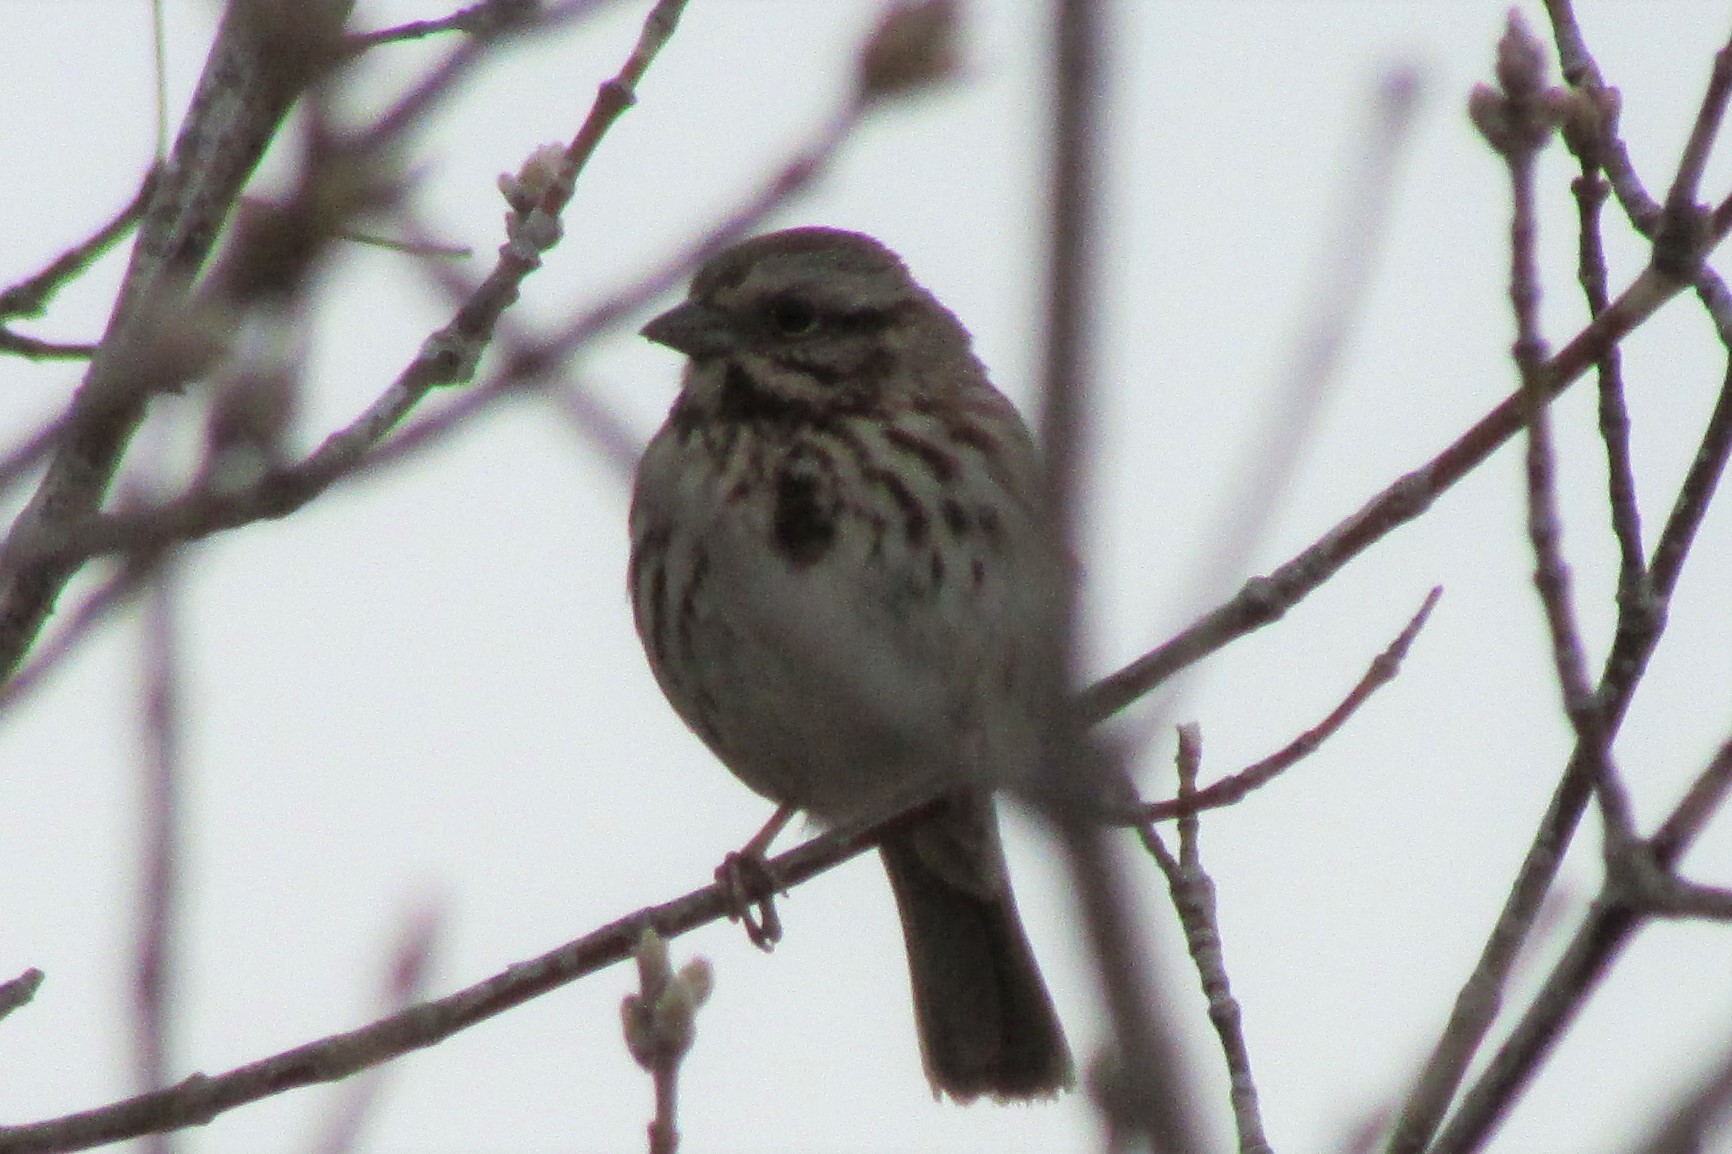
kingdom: Animalia
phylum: Chordata
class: Aves
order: Passeriformes
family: Passerellidae
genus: Melospiza
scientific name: Melospiza melodia
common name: Song sparrow
